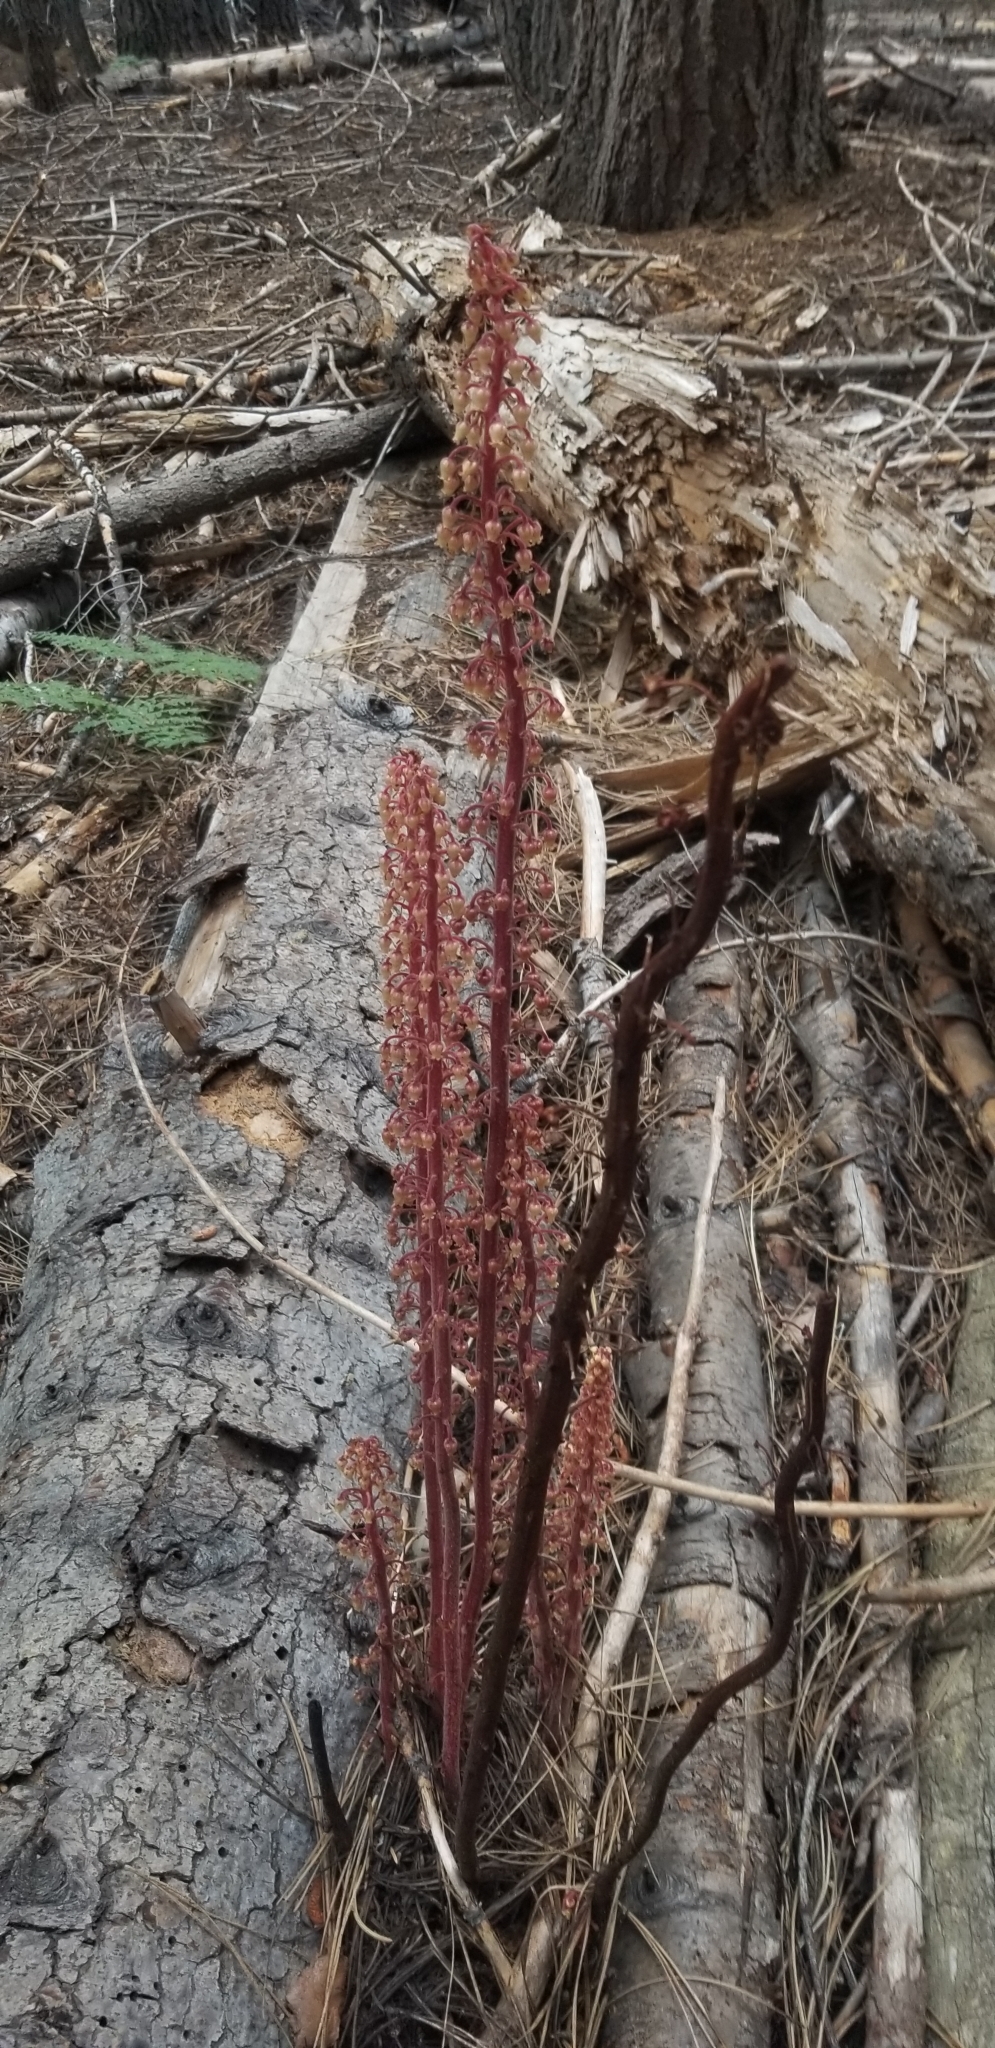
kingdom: Plantae
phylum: Tracheophyta
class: Magnoliopsida
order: Ericales
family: Ericaceae
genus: Pterospora
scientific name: Pterospora andromedea
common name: Giant bird's-nest
